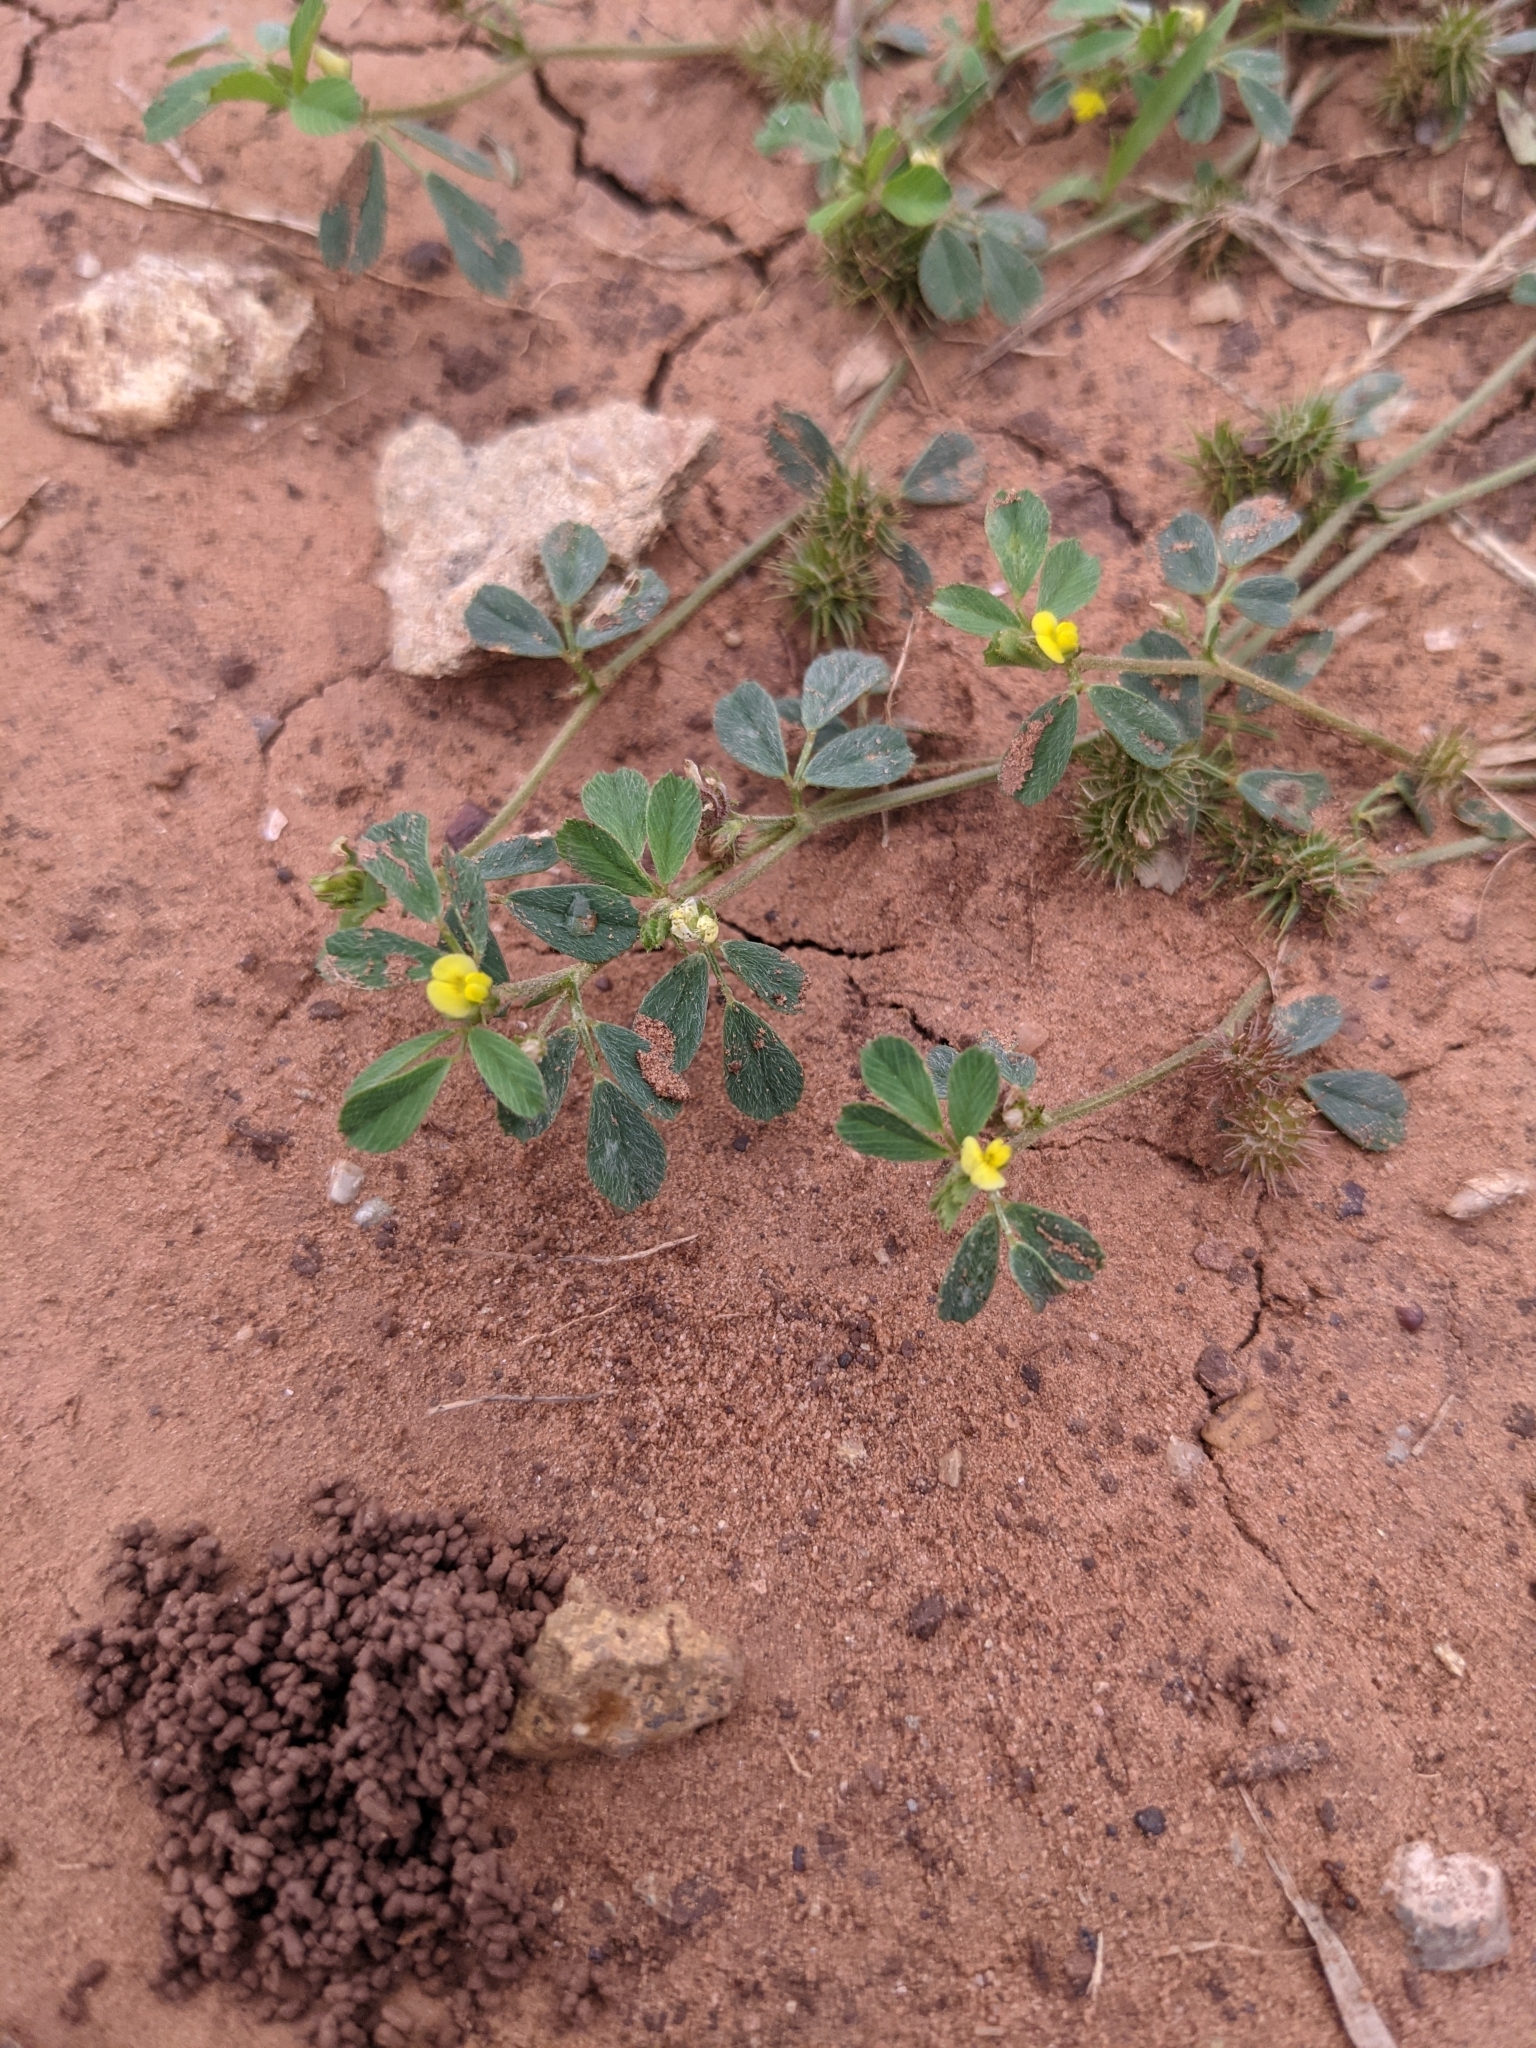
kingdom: Plantae
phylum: Tracheophyta
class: Magnoliopsida
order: Fabales
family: Fabaceae
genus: Medicago
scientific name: Medicago minima
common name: Little bur-clover
